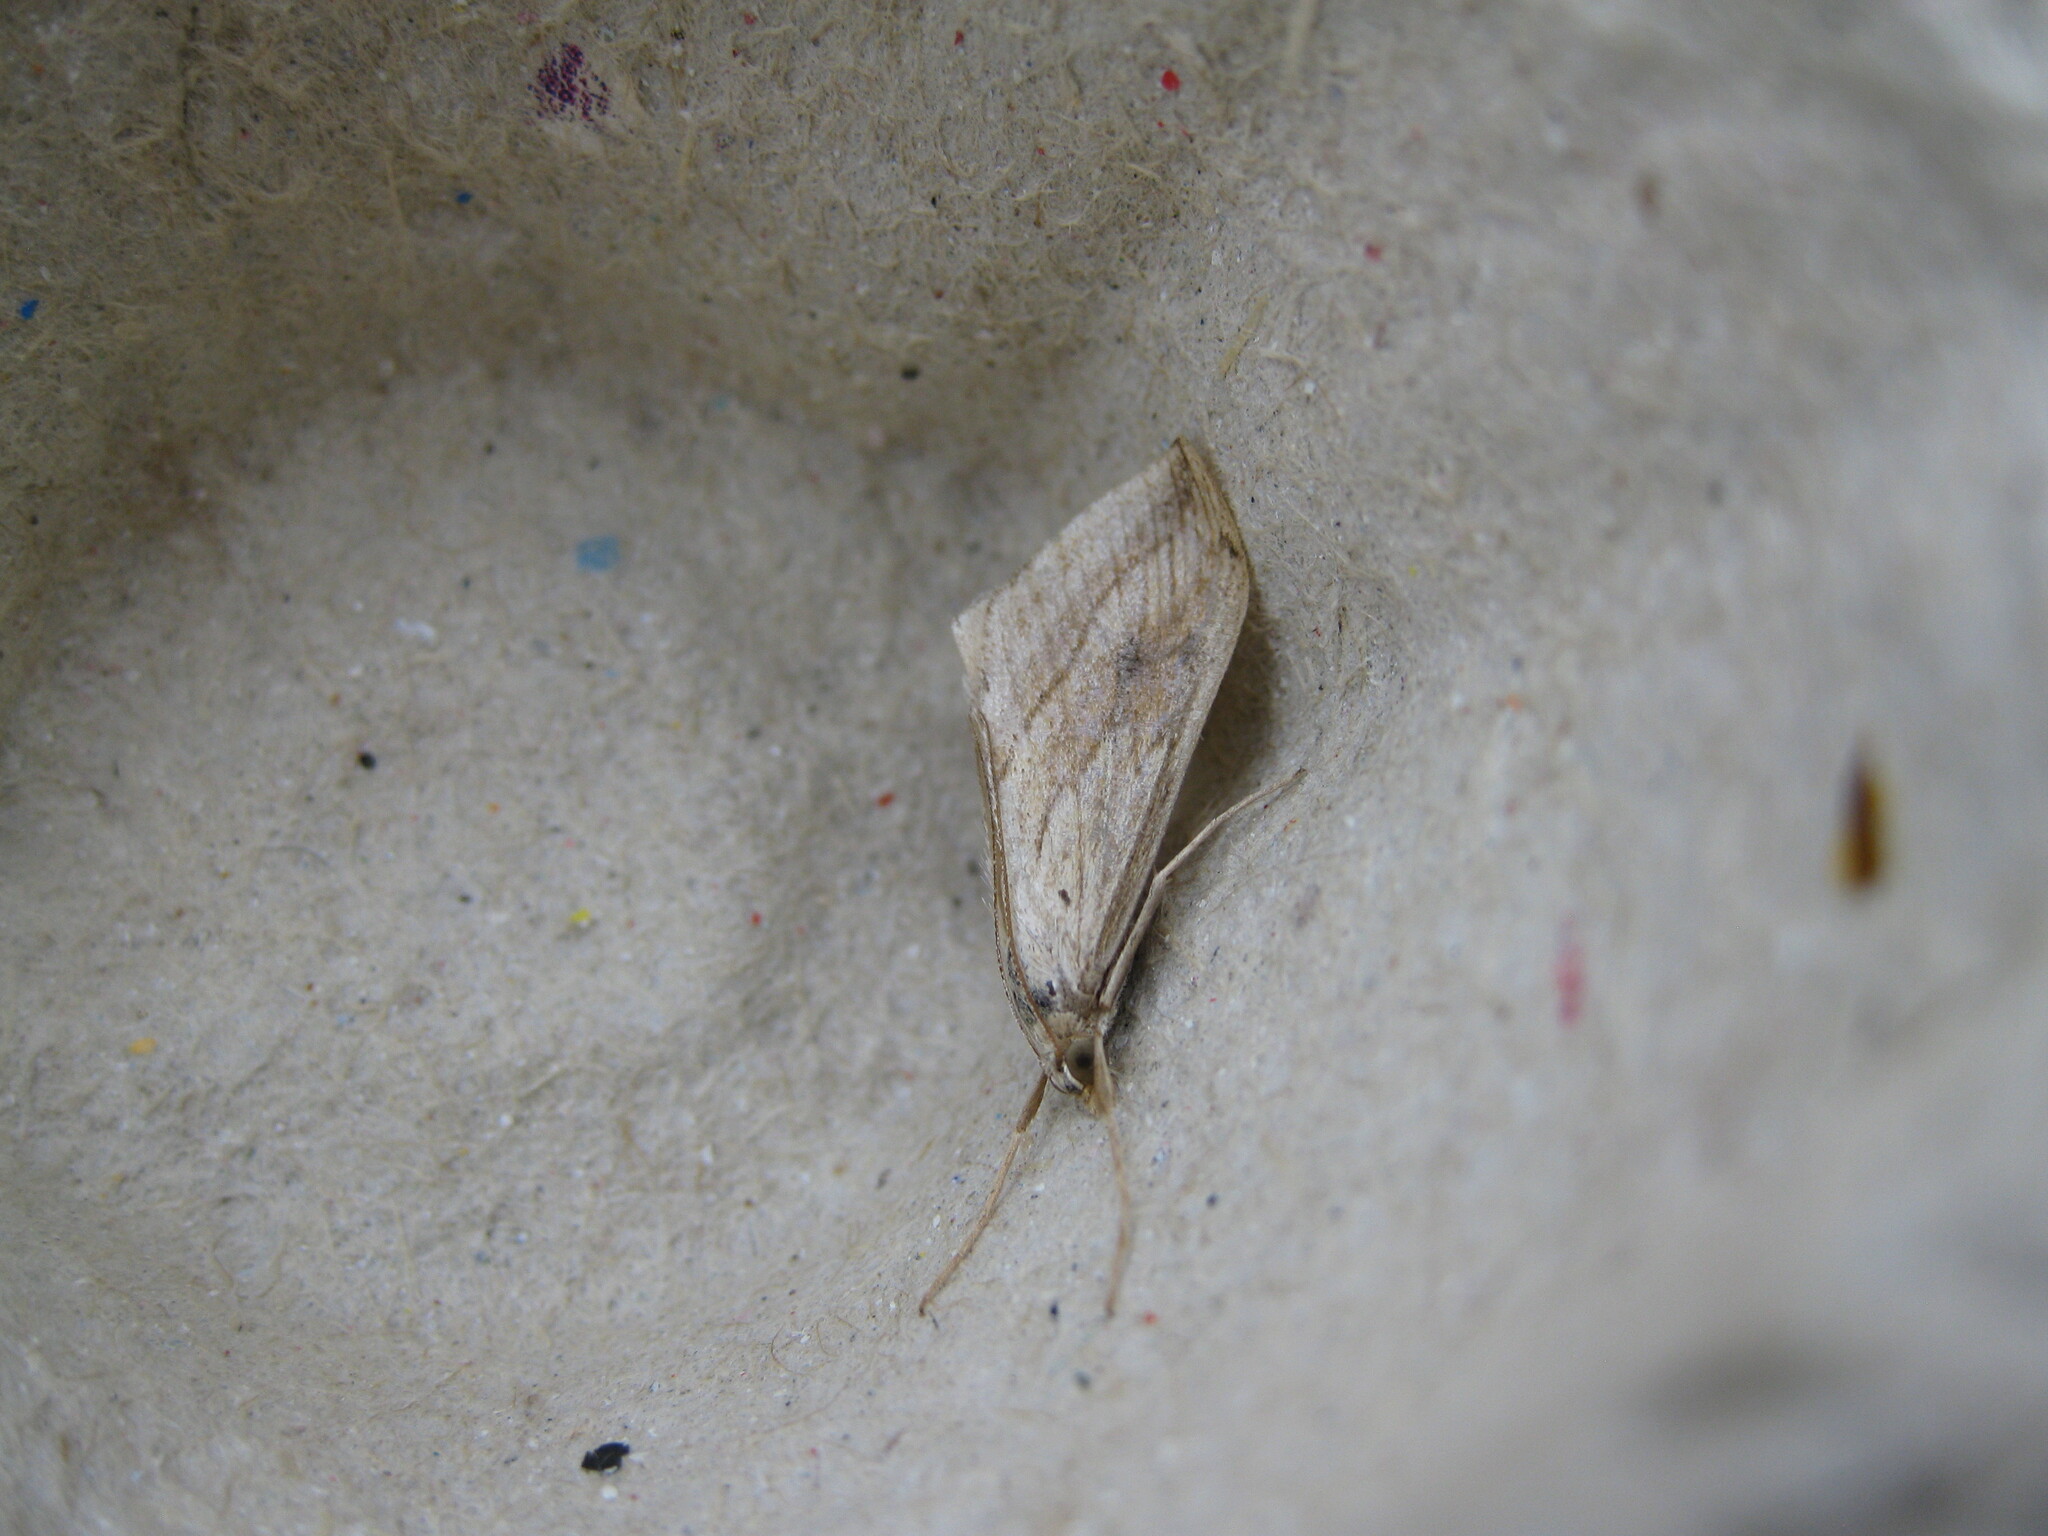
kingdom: Animalia
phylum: Arthropoda
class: Insecta
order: Lepidoptera
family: Crambidae
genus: Evergestis
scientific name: Evergestis forficalis
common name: Garden pebble
